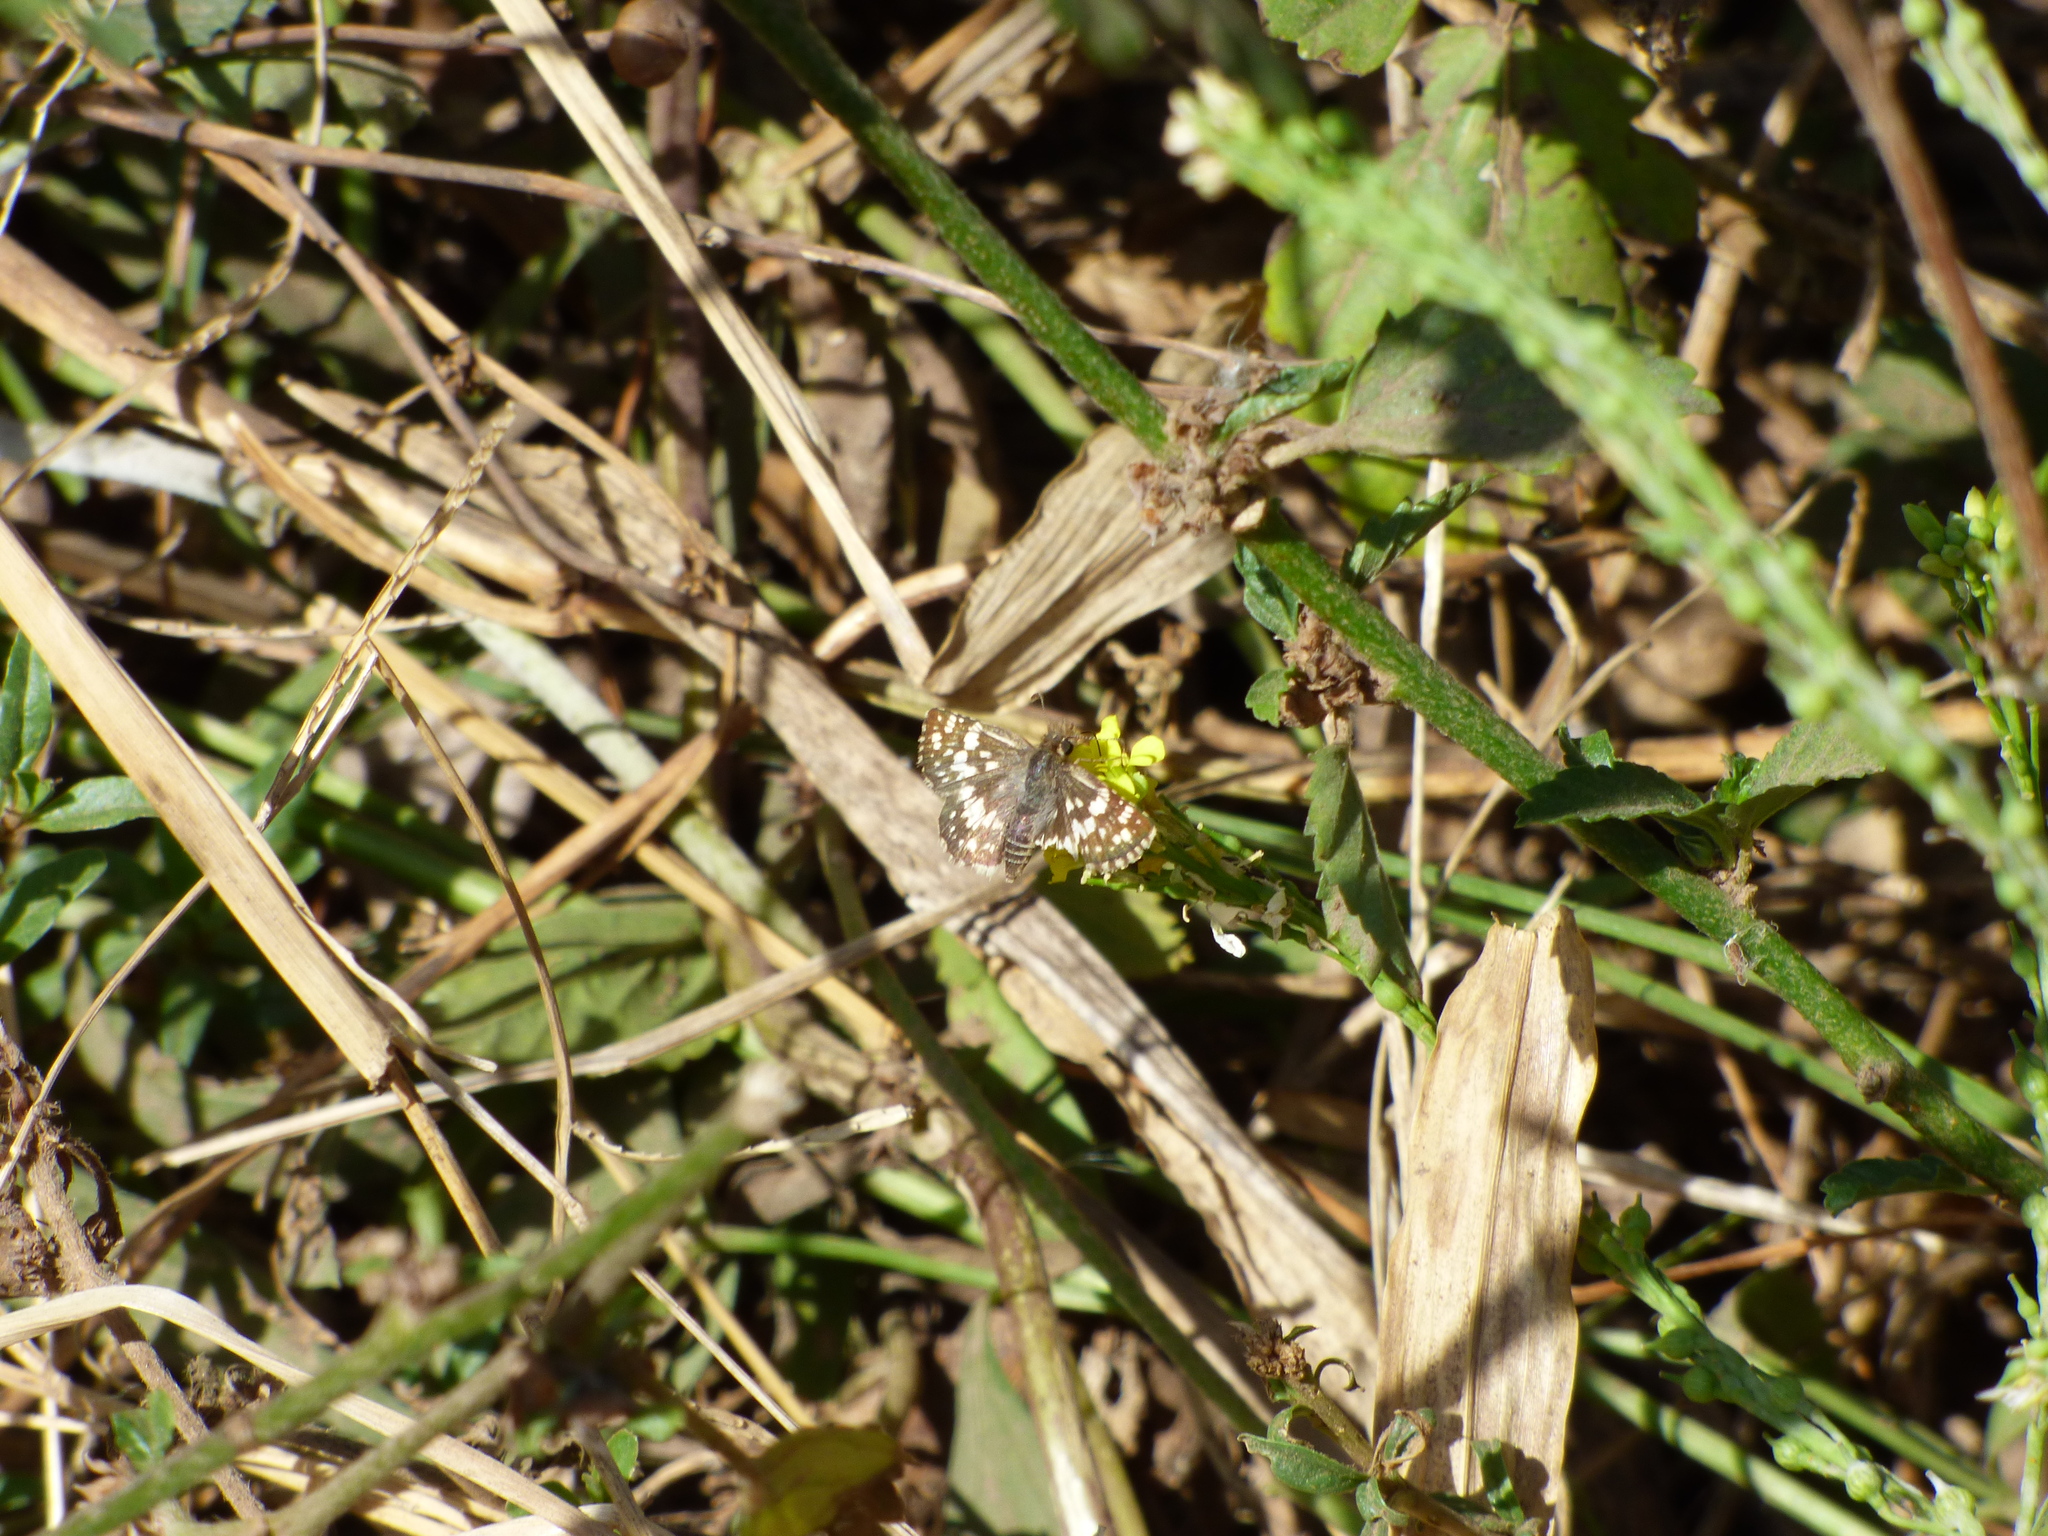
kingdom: Animalia
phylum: Arthropoda
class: Insecta
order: Lepidoptera
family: Hesperiidae
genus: Burnsius
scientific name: Burnsius orcynoides
